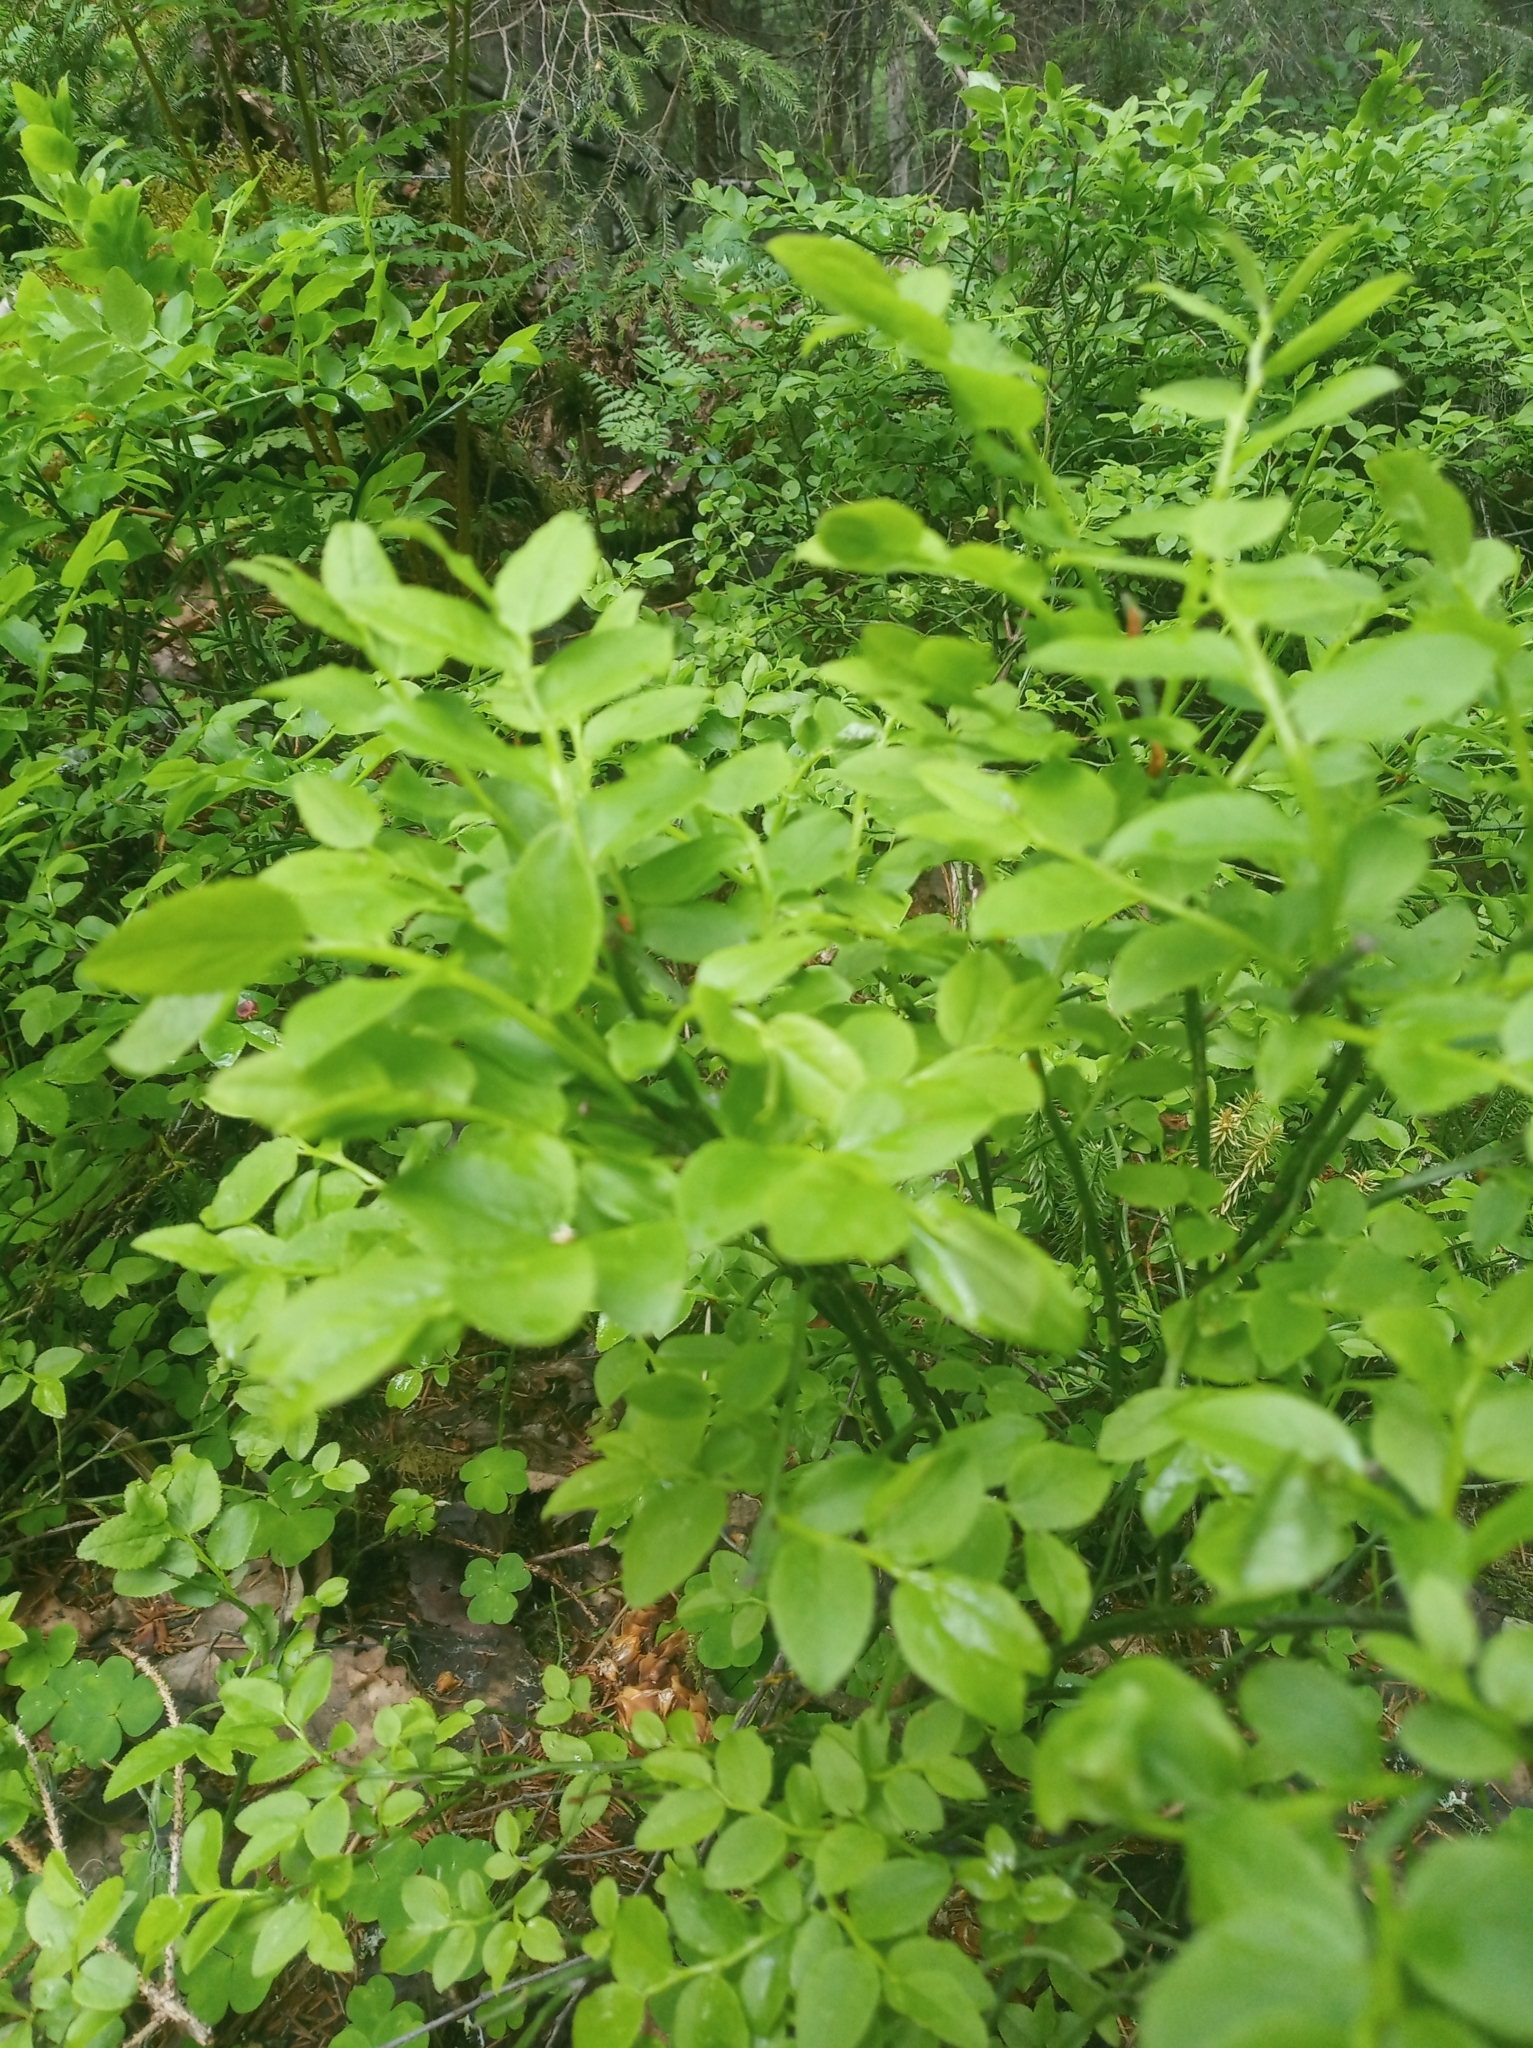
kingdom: Plantae
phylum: Tracheophyta
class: Magnoliopsida
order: Ericales
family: Ericaceae
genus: Vaccinium
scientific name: Vaccinium myrtillus
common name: Bilberry
